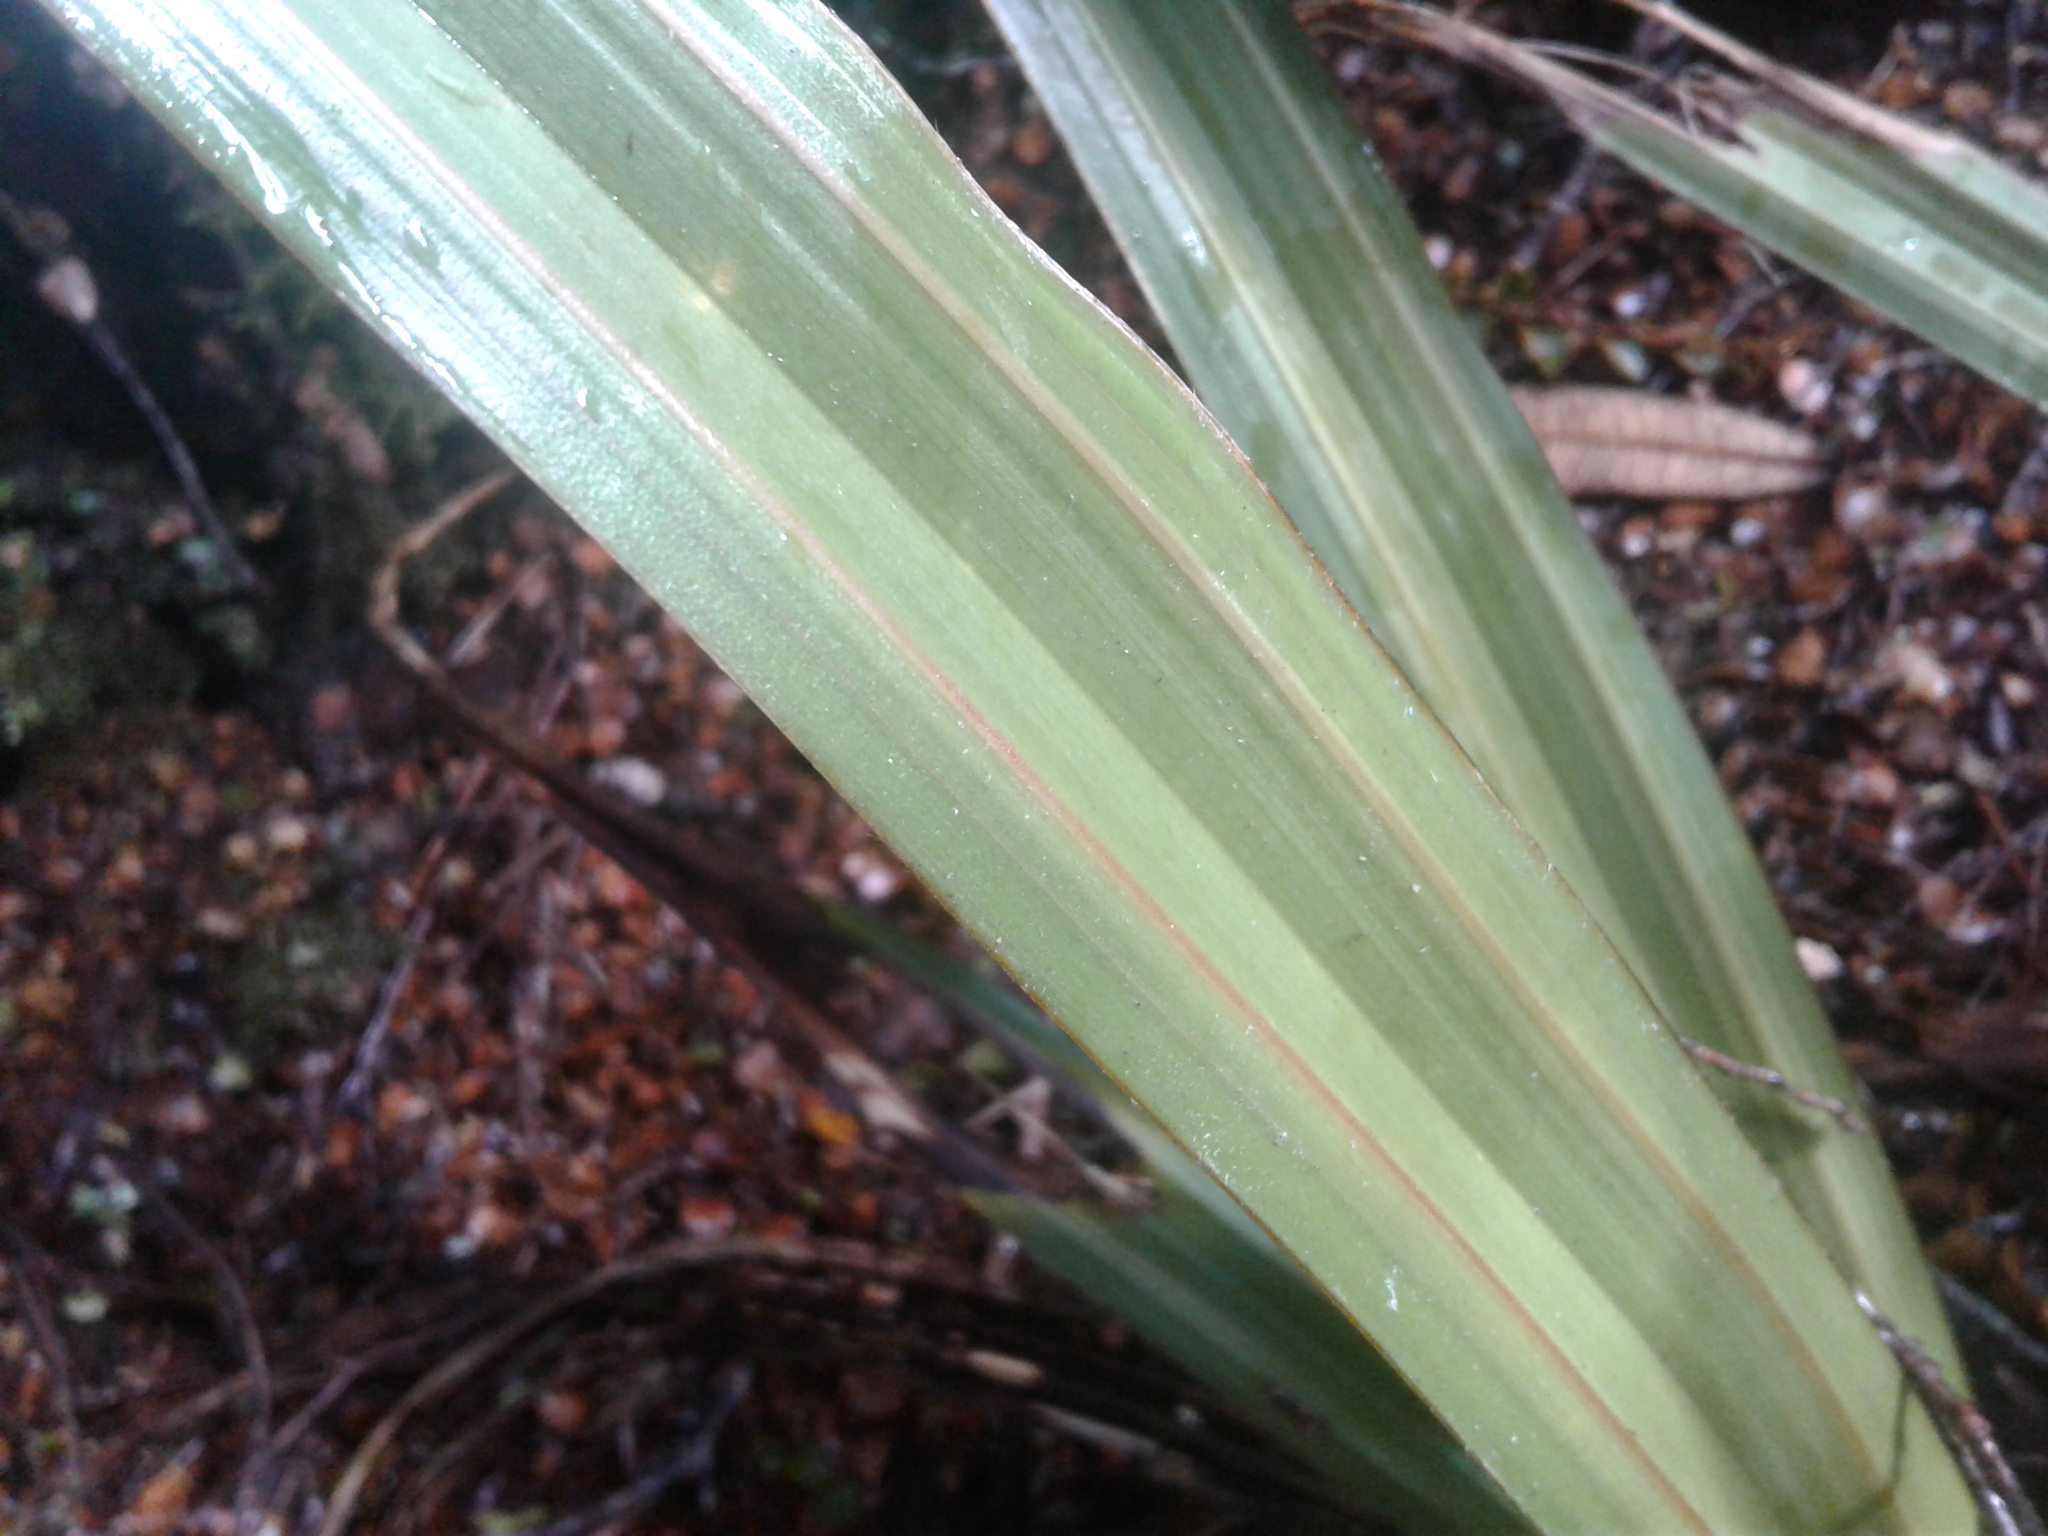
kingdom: Plantae
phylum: Tracheophyta
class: Liliopsida
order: Asparagales
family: Asteliaceae
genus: Astelia
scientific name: Astelia fragrans
